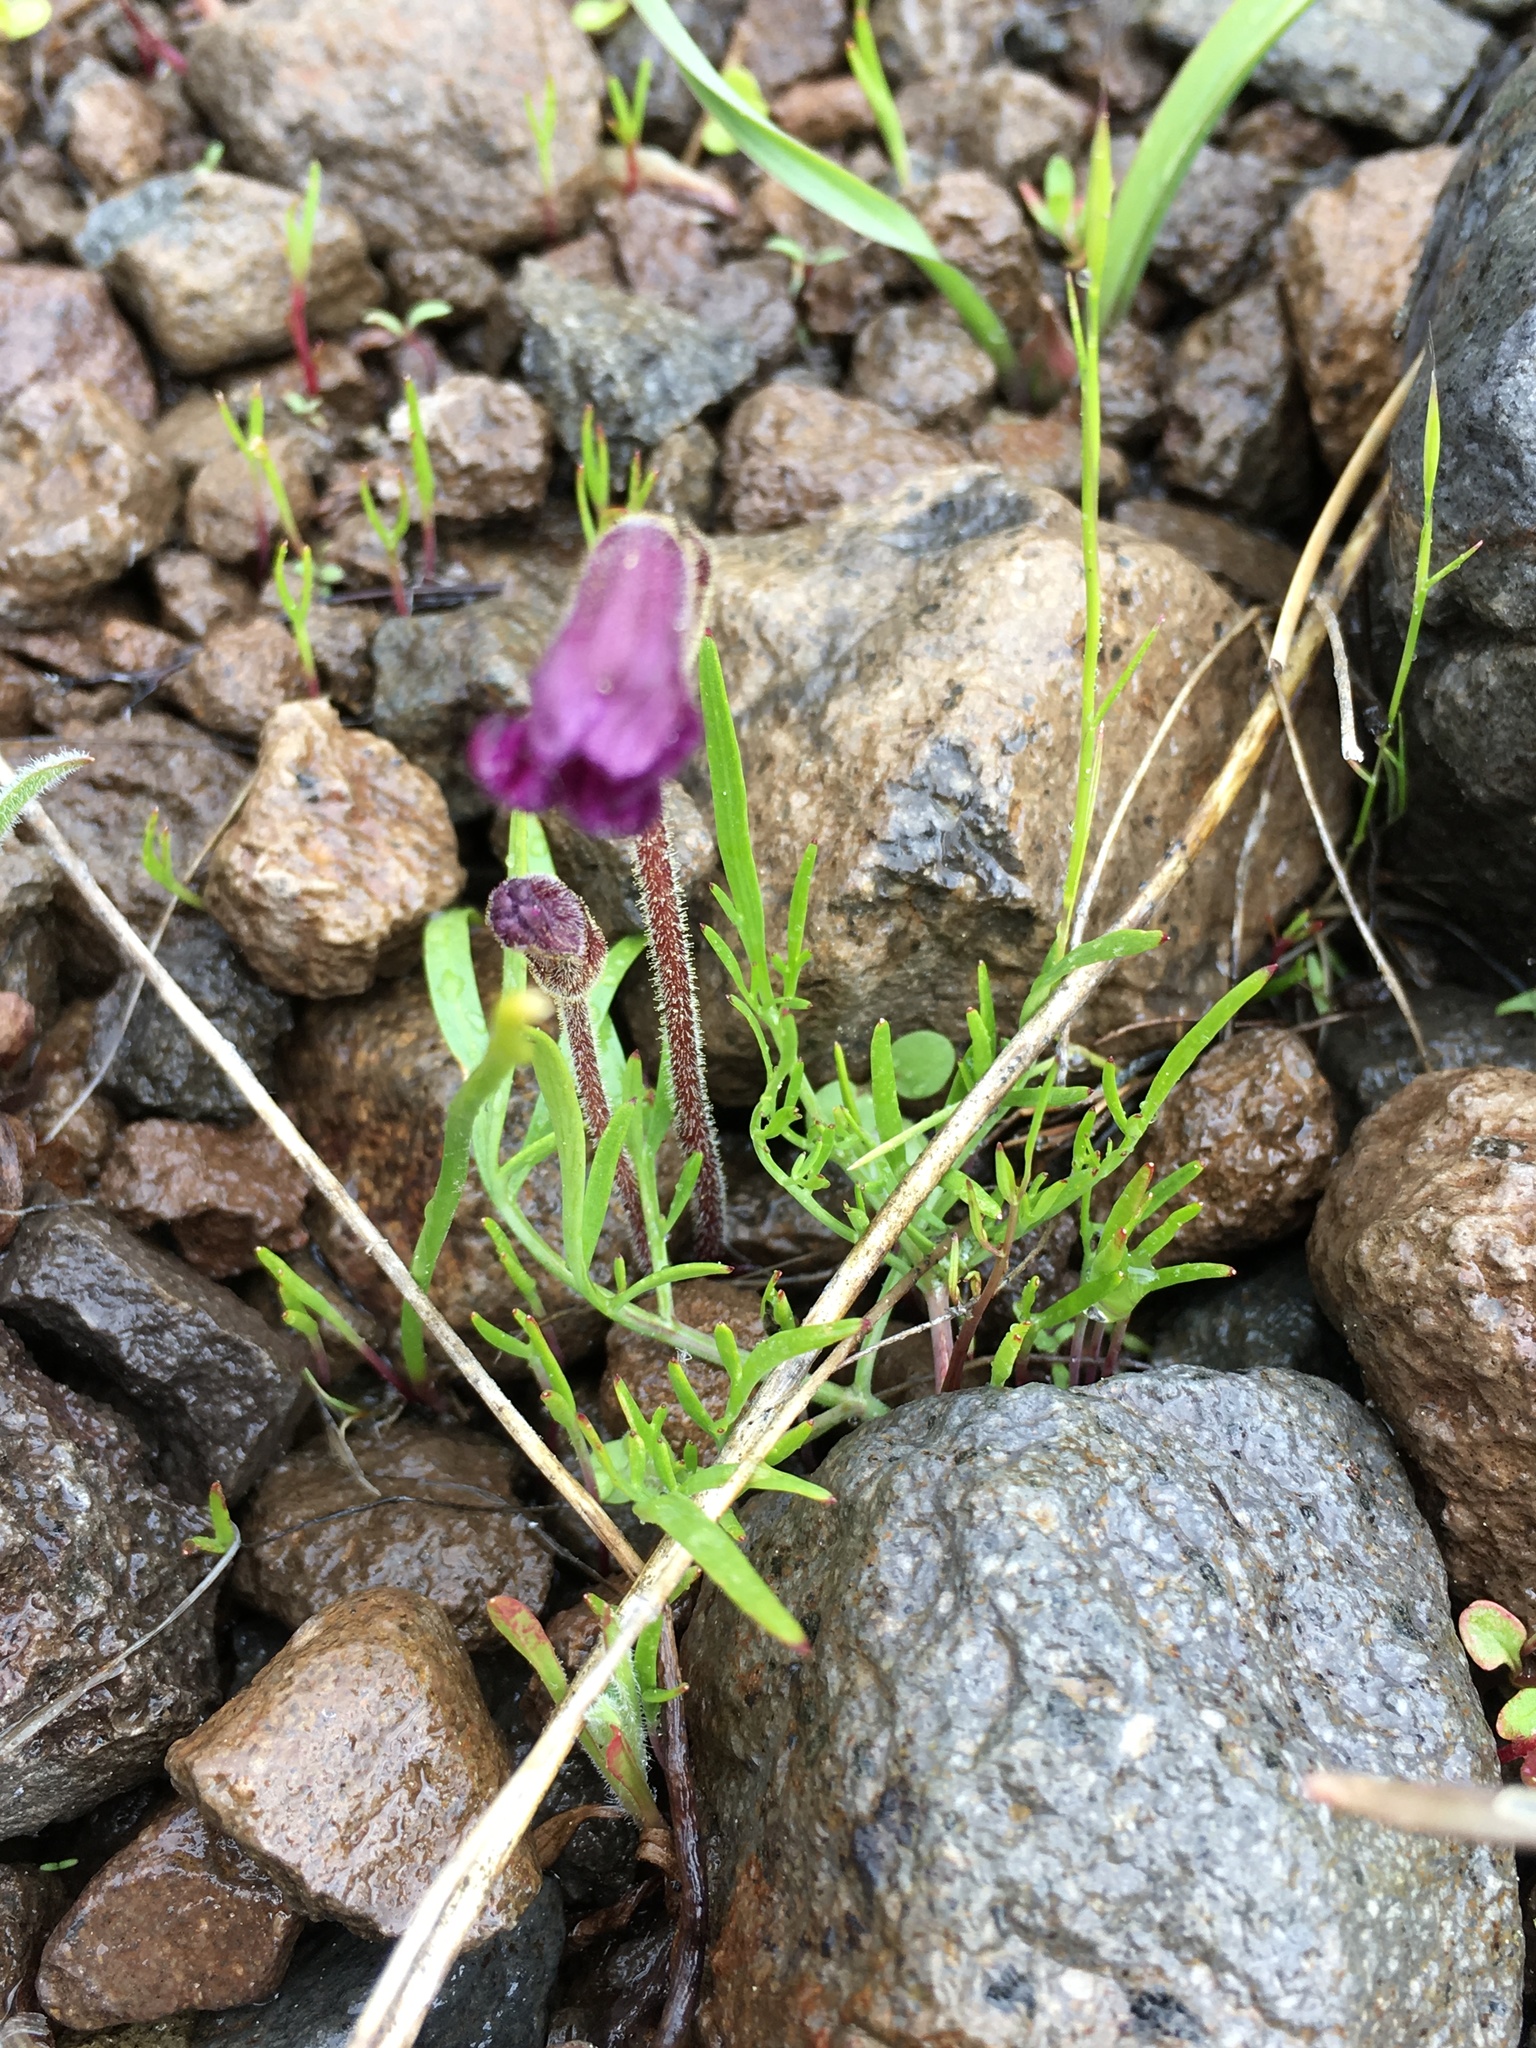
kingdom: Plantae
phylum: Tracheophyta
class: Magnoliopsida
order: Lamiales
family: Orobanchaceae
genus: Aphyllon
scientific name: Aphyllon uniflorum
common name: One-flowered broomrape
